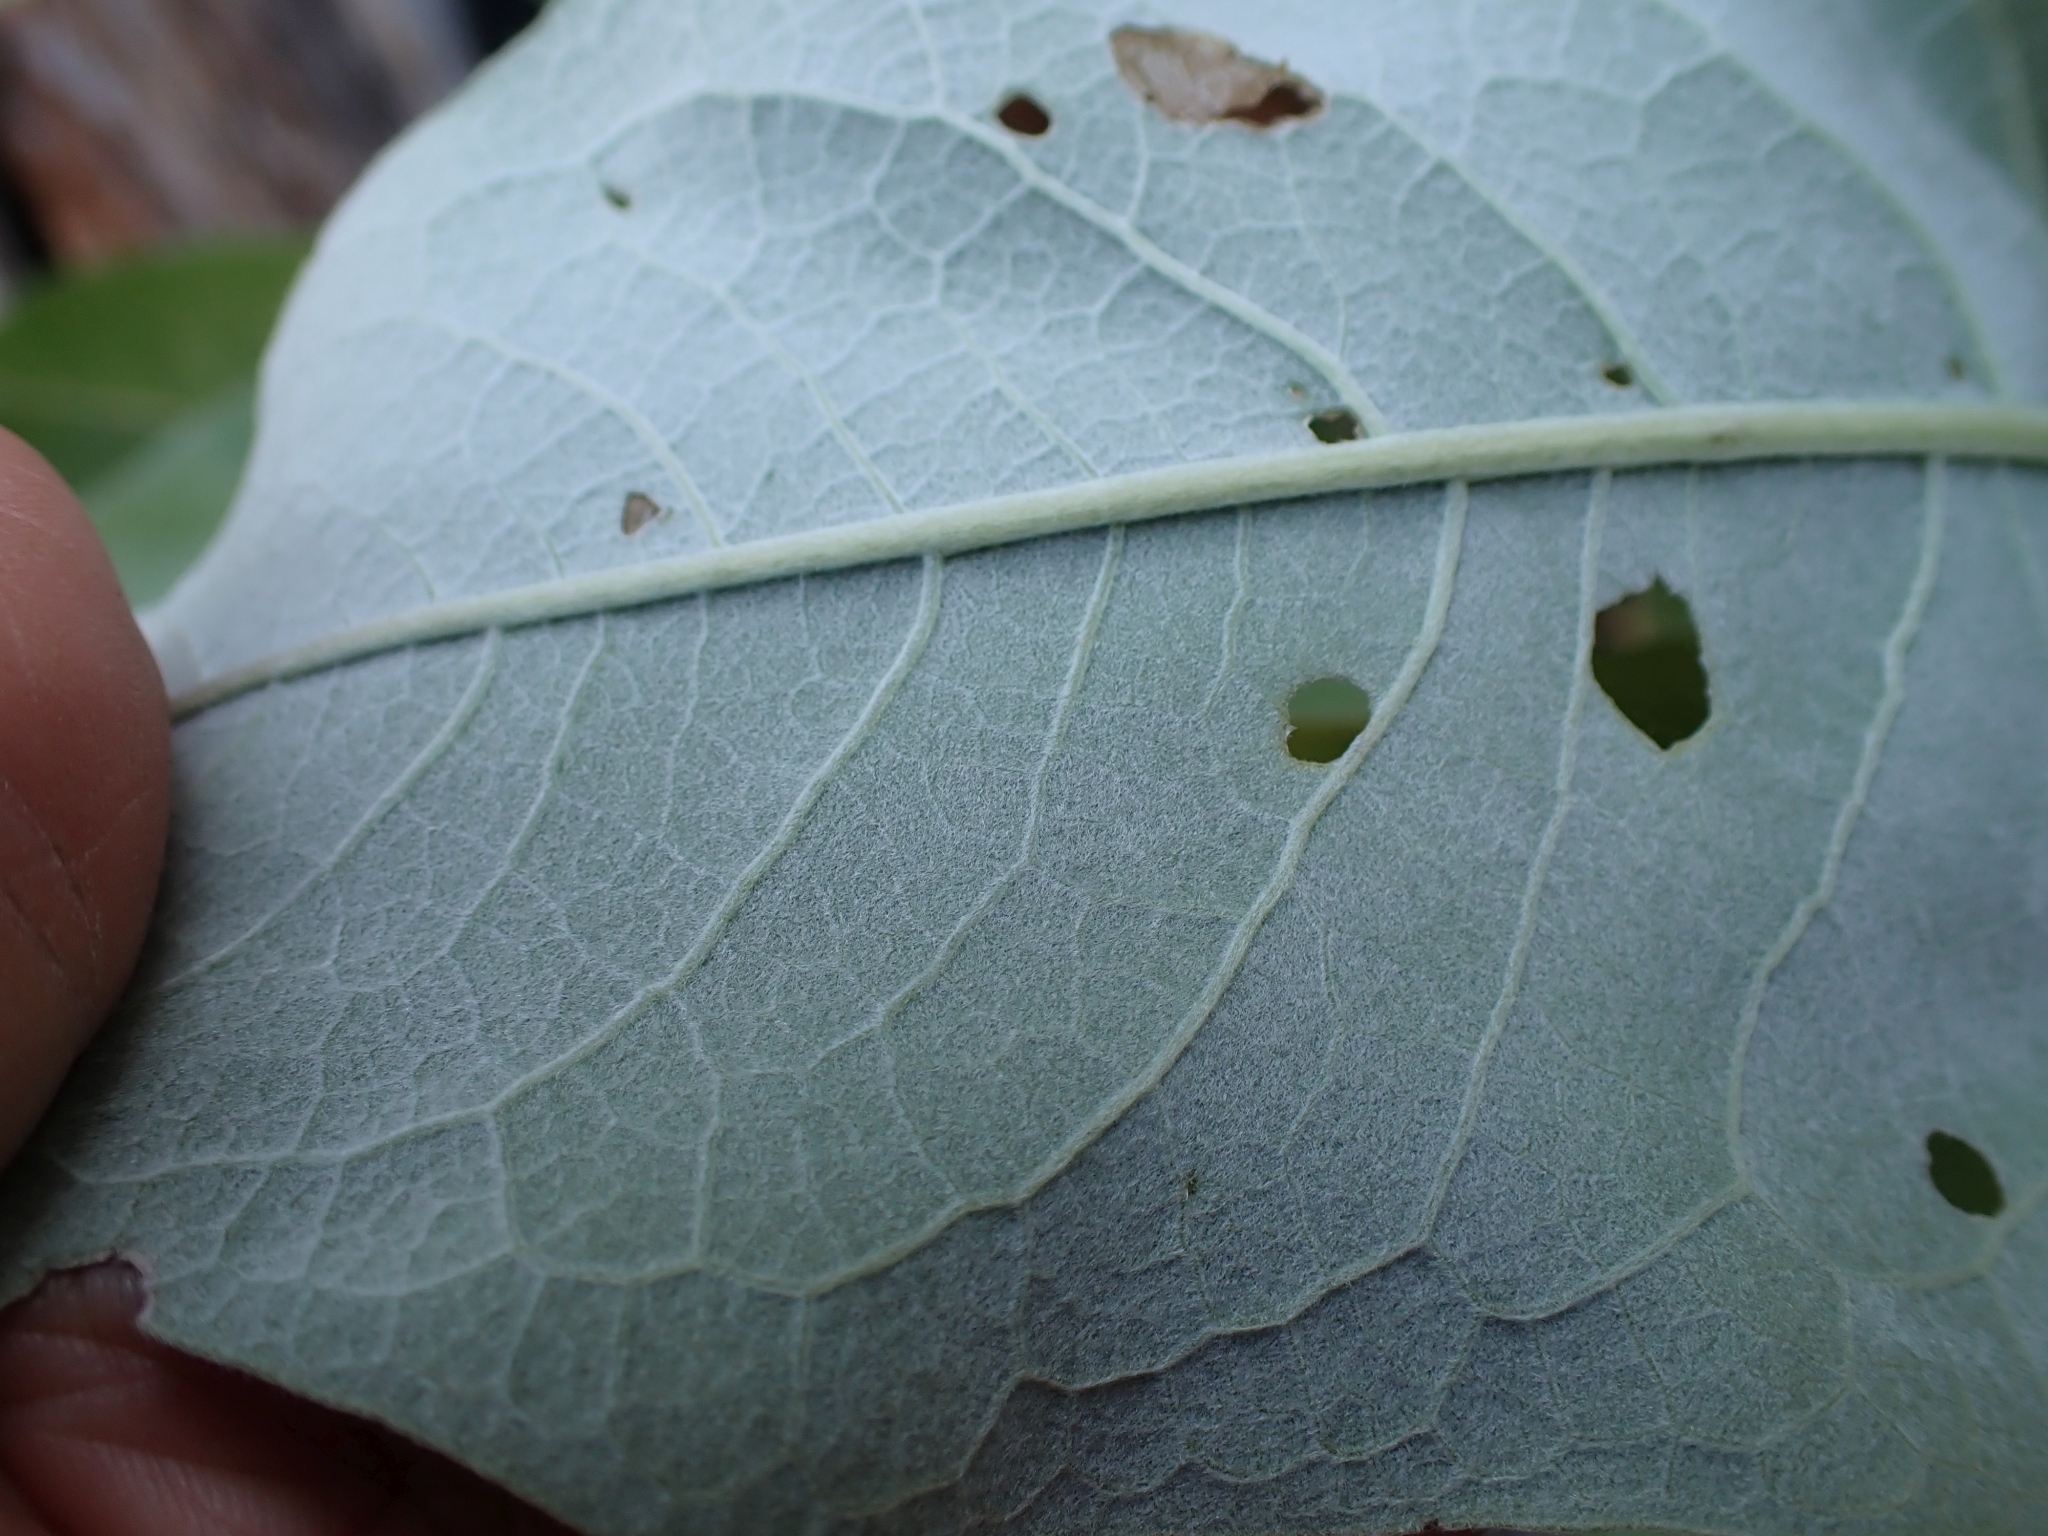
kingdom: Plantae
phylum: Tracheophyta
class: Magnoliopsida
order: Asterales
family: Asteraceae
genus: Wyethia
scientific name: Wyethia sagittata
